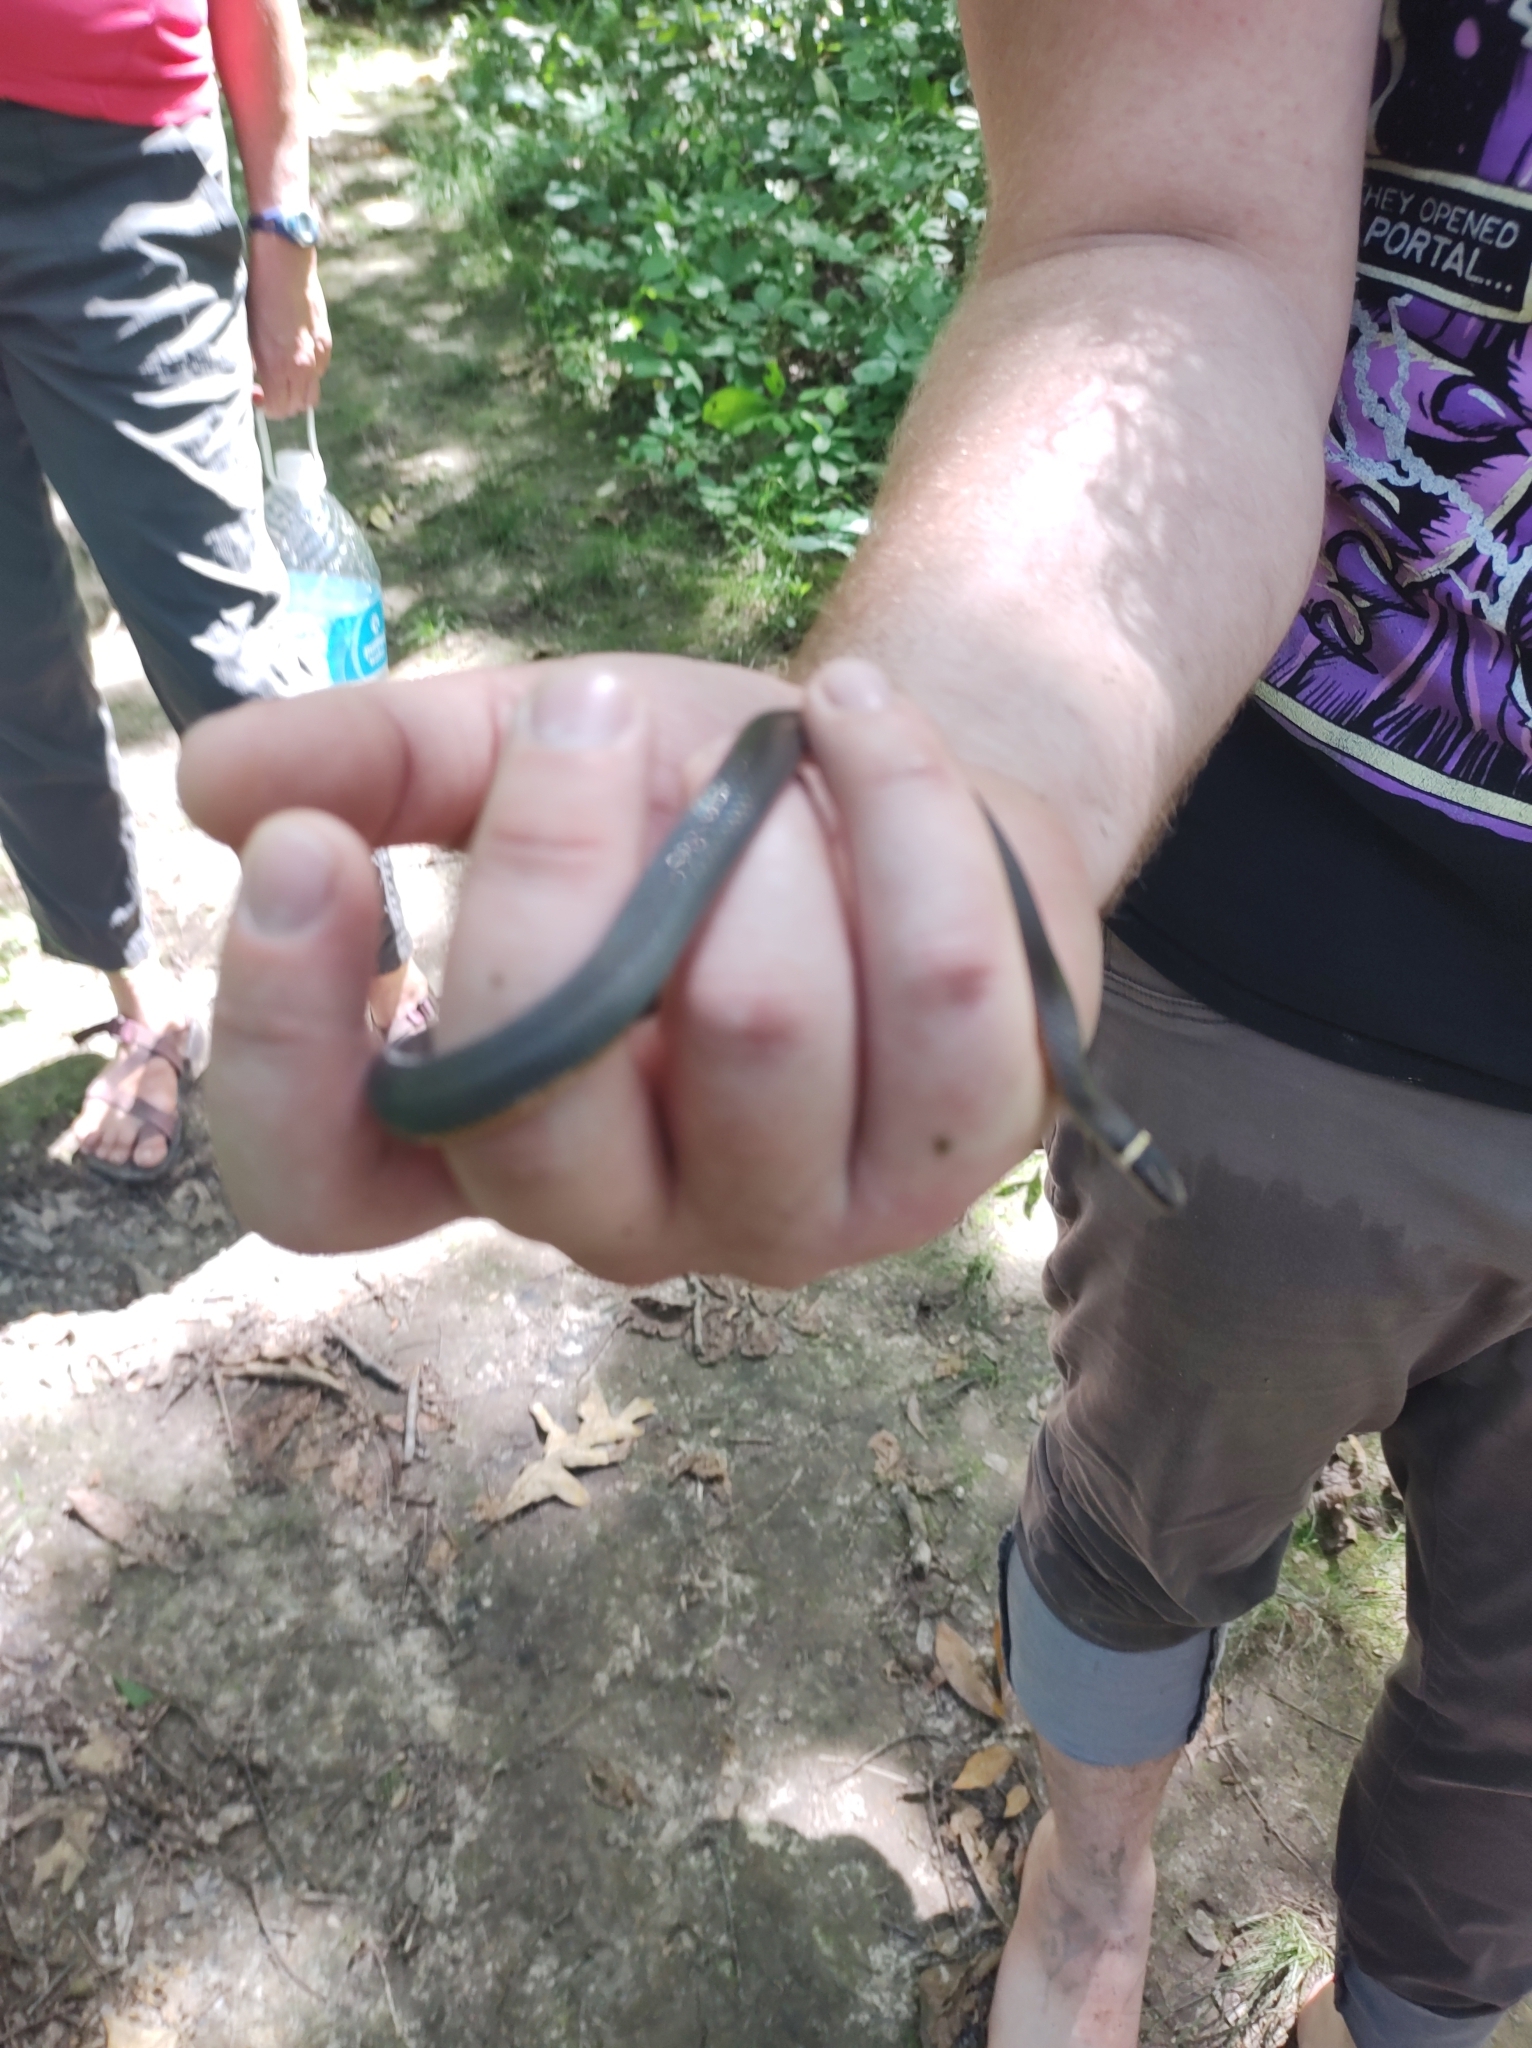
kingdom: Animalia
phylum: Chordata
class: Squamata
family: Colubridae
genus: Diadophis
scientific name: Diadophis punctatus
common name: Ringneck snake
